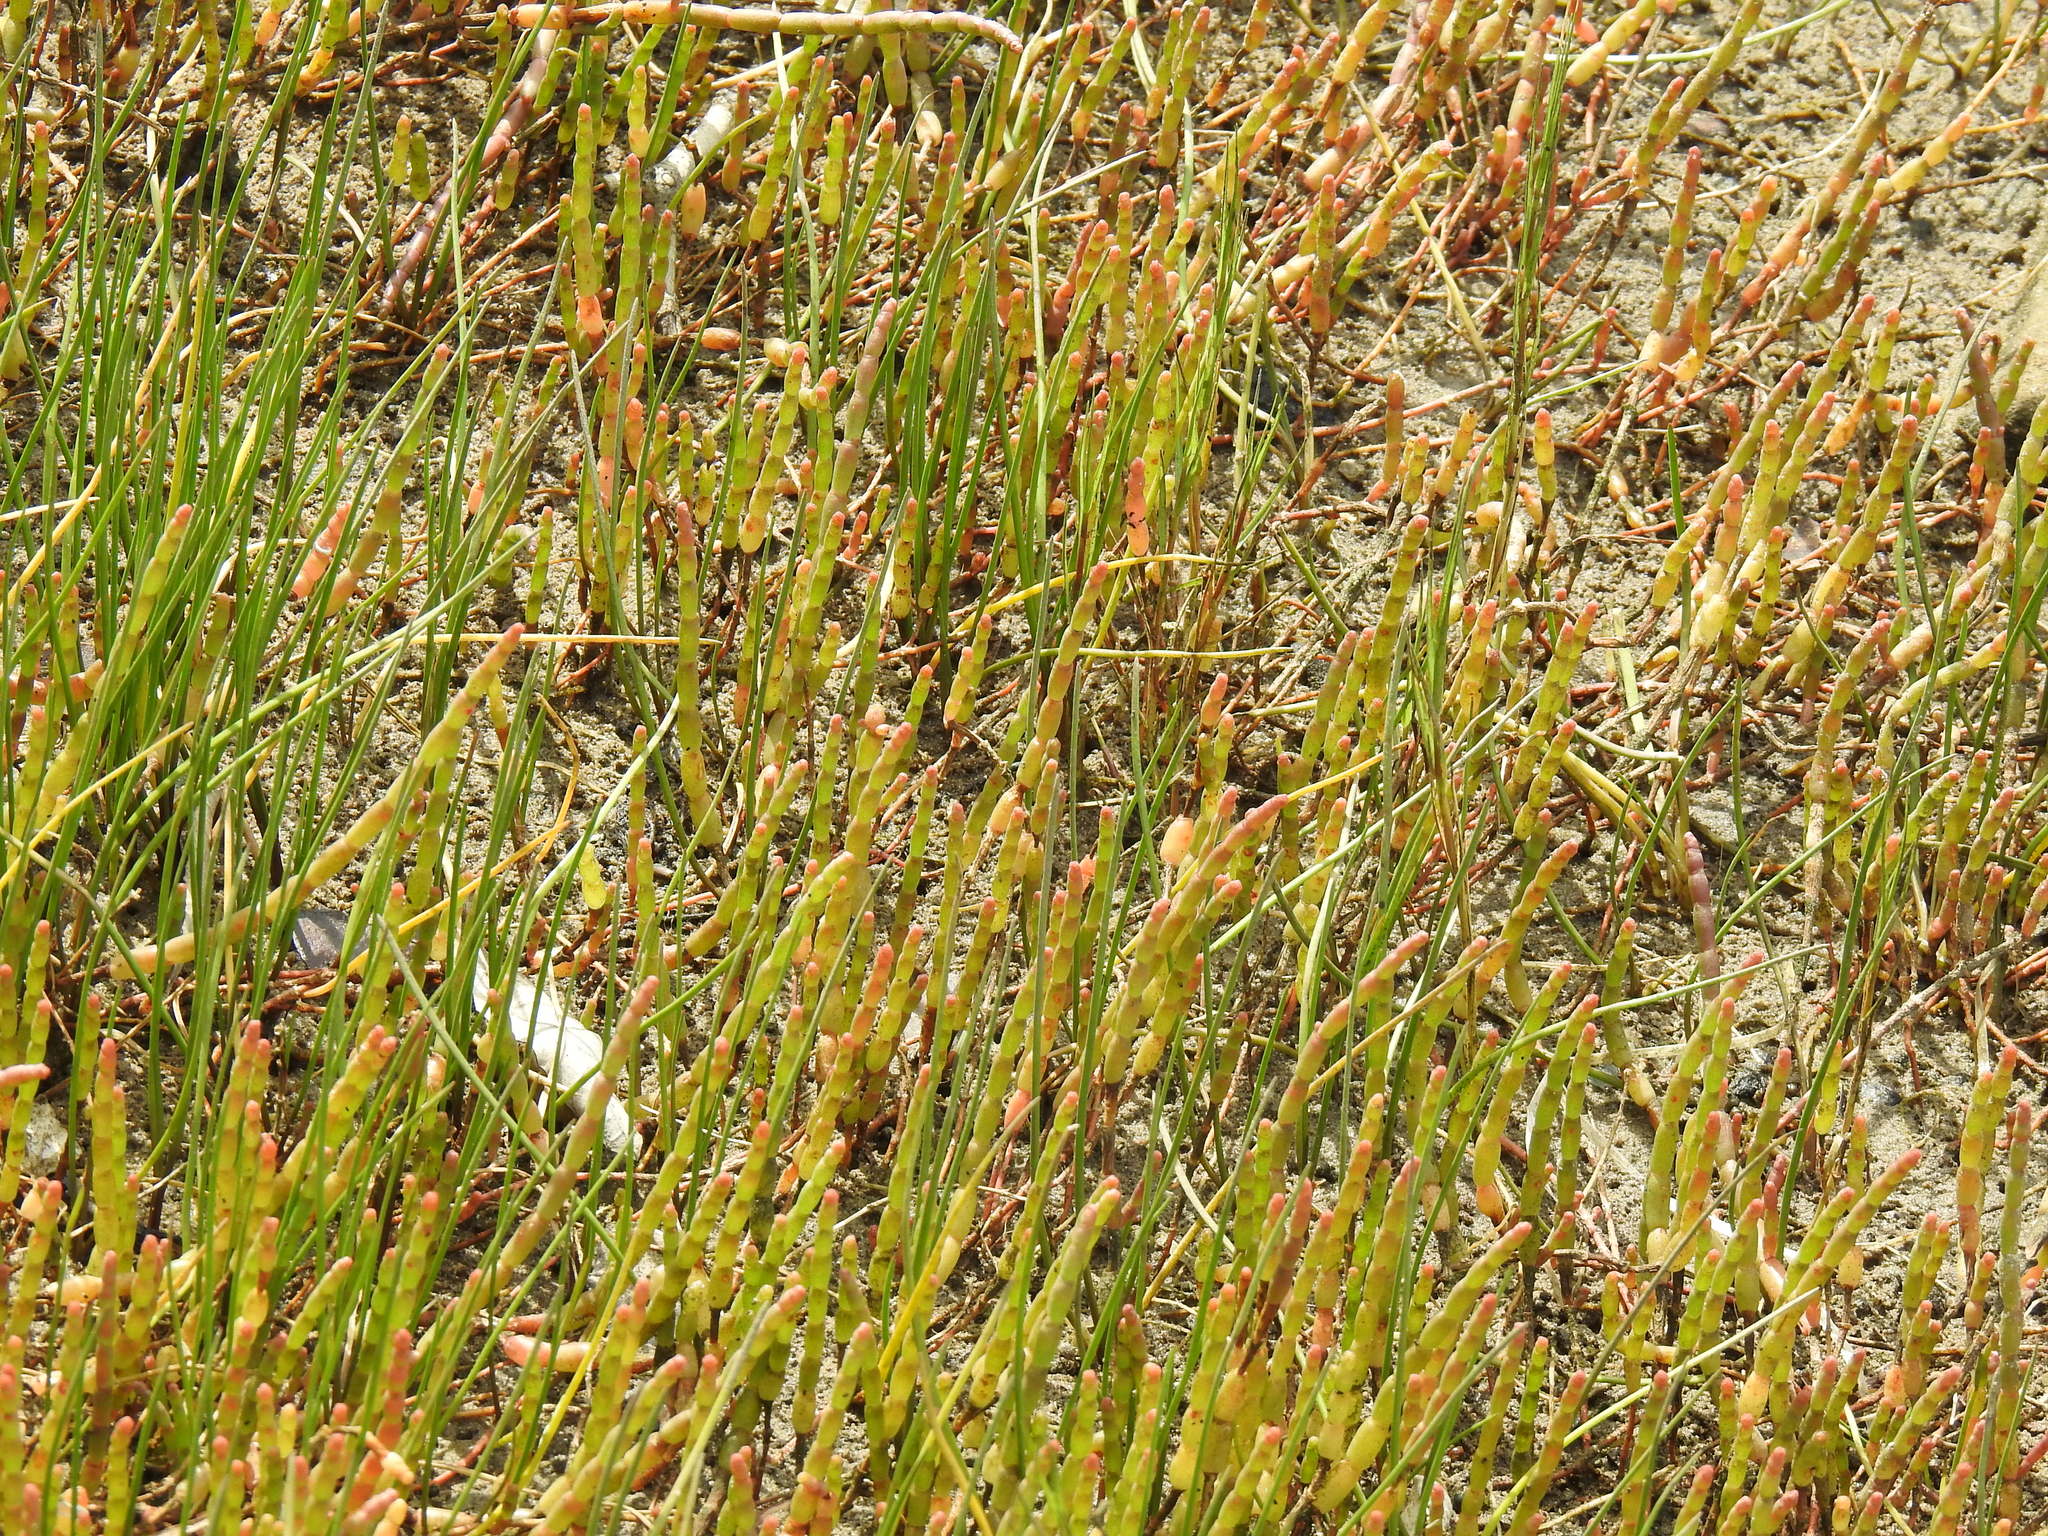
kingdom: Plantae
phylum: Tracheophyta
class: Magnoliopsida
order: Caryophyllales
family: Amaranthaceae
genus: Salicornia
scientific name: Salicornia tegetaria
